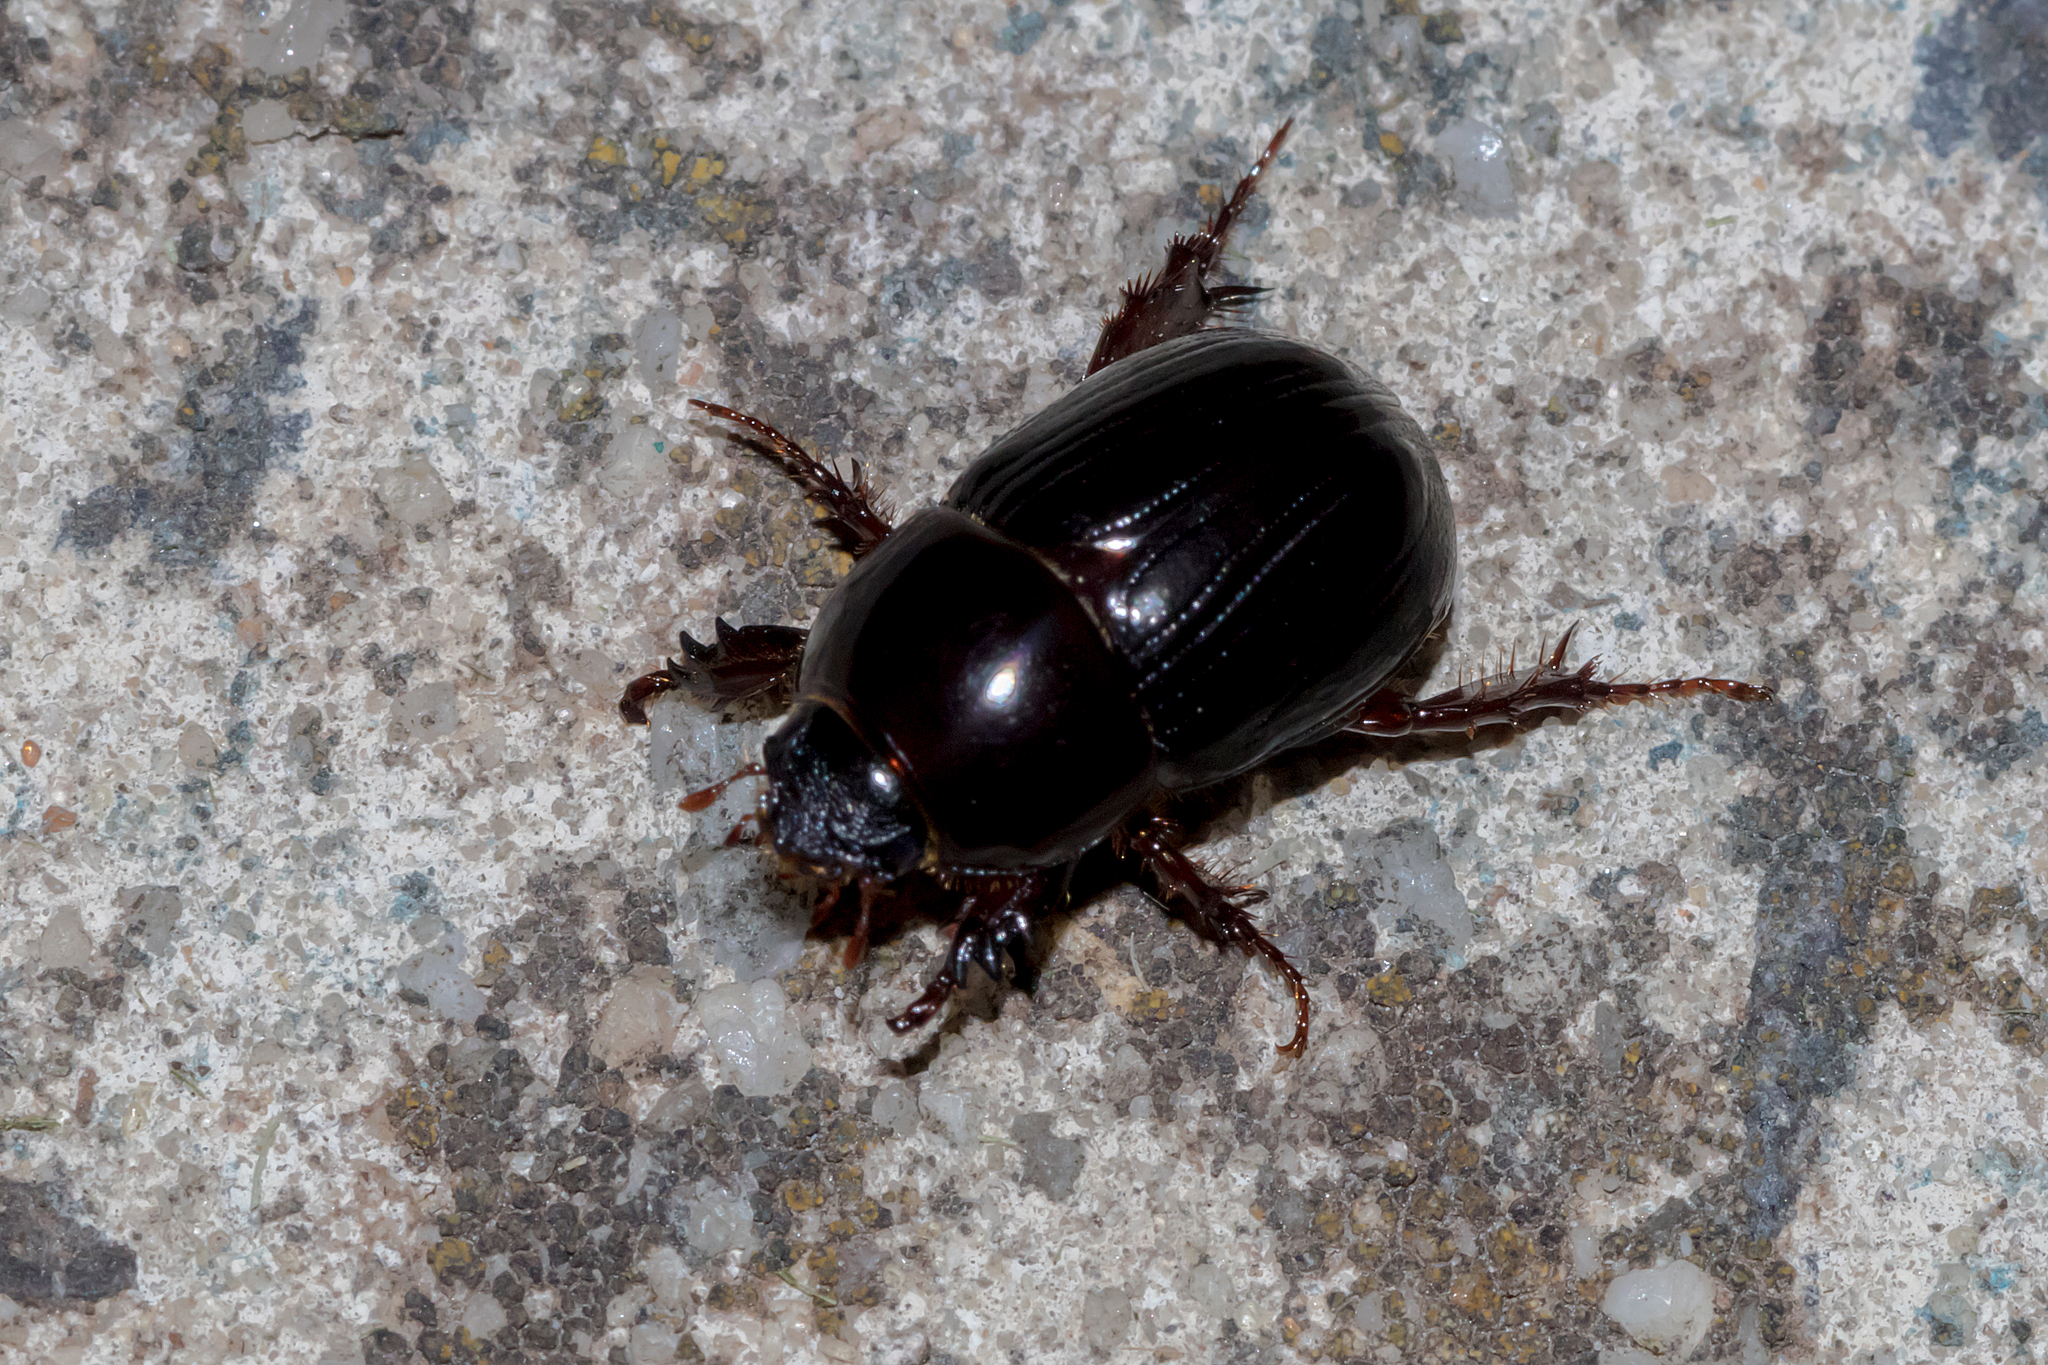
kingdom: Animalia
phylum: Arthropoda
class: Insecta
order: Coleoptera
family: Scarabaeidae
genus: Heteronychus
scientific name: Heteronychus arator
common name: African black beetle
